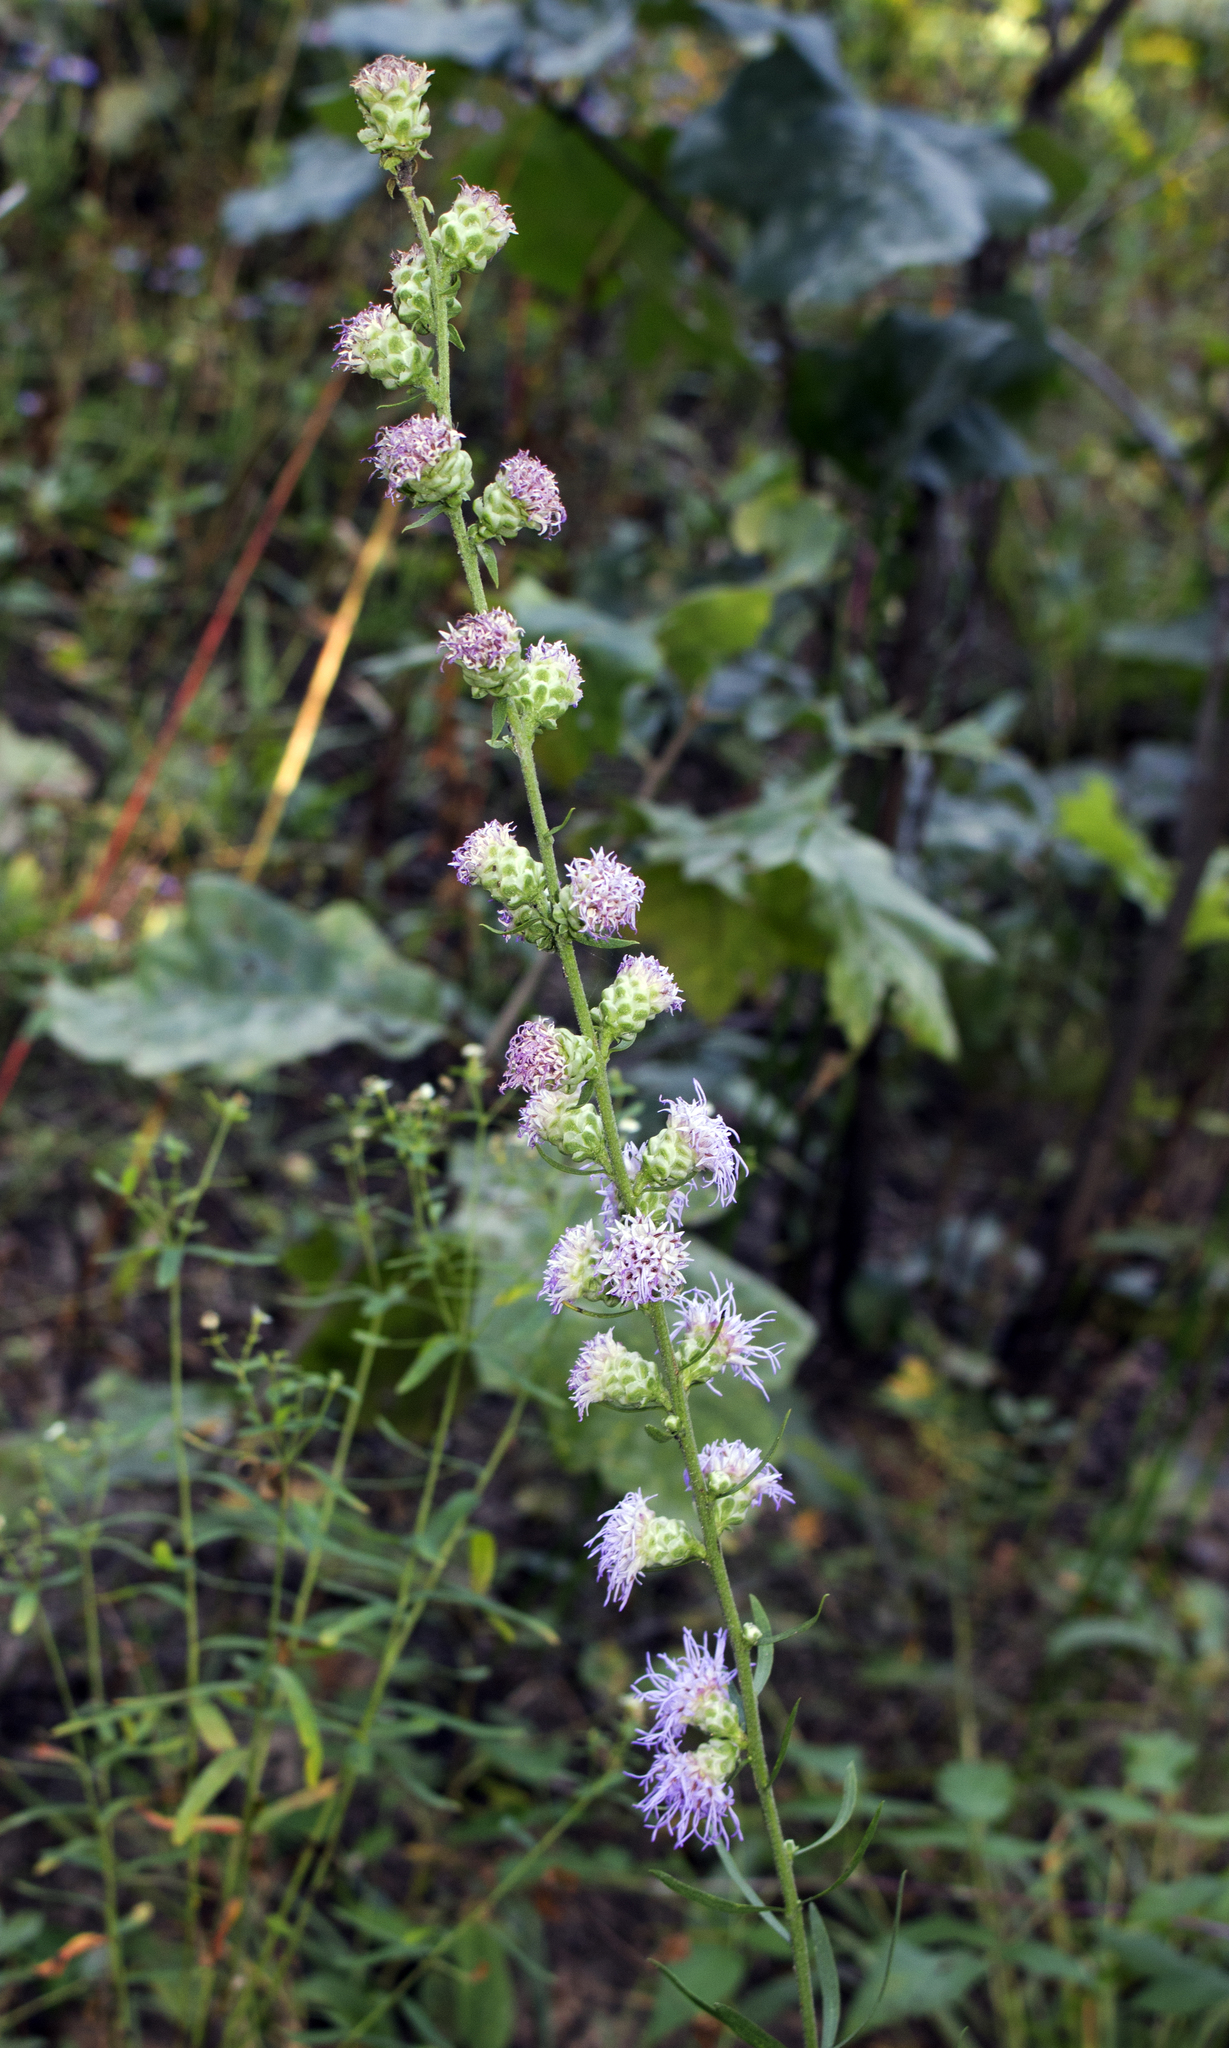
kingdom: Plantae
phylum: Tracheophyta
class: Magnoliopsida
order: Asterales
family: Asteraceae
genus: Liatris
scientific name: Liatris aspera
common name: Lacerate blazing-star
